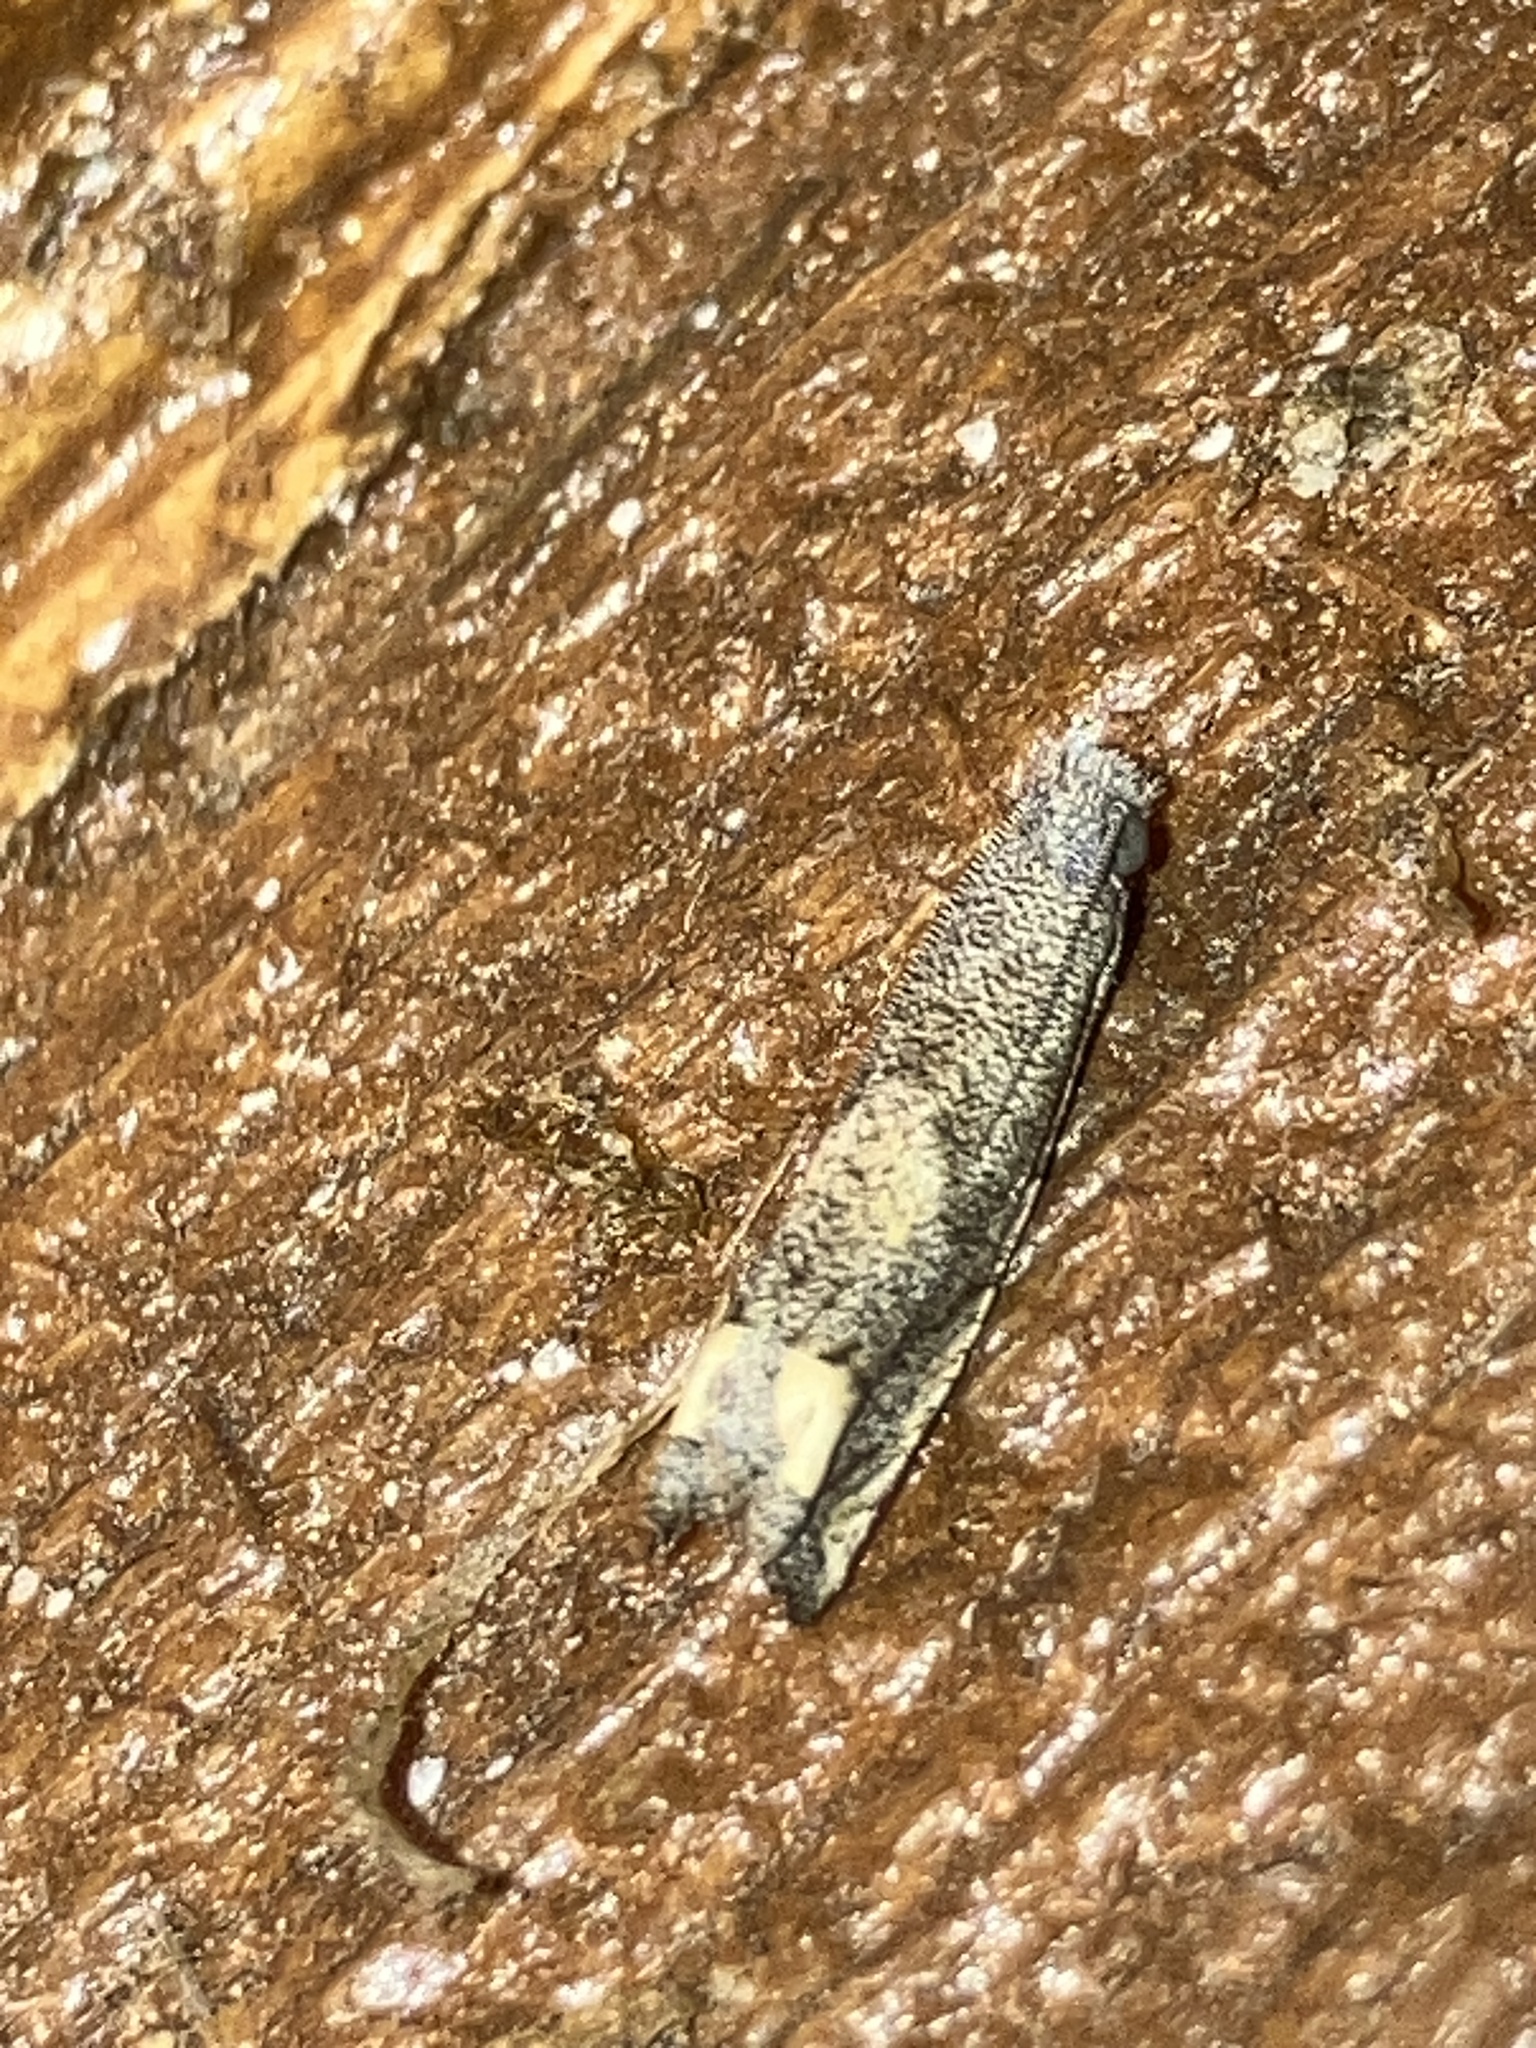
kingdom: Animalia
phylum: Arthropoda
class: Insecta
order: Lepidoptera
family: Tortricidae
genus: Epiblema
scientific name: Epiblema strenuana
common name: Ragweed borer moth
